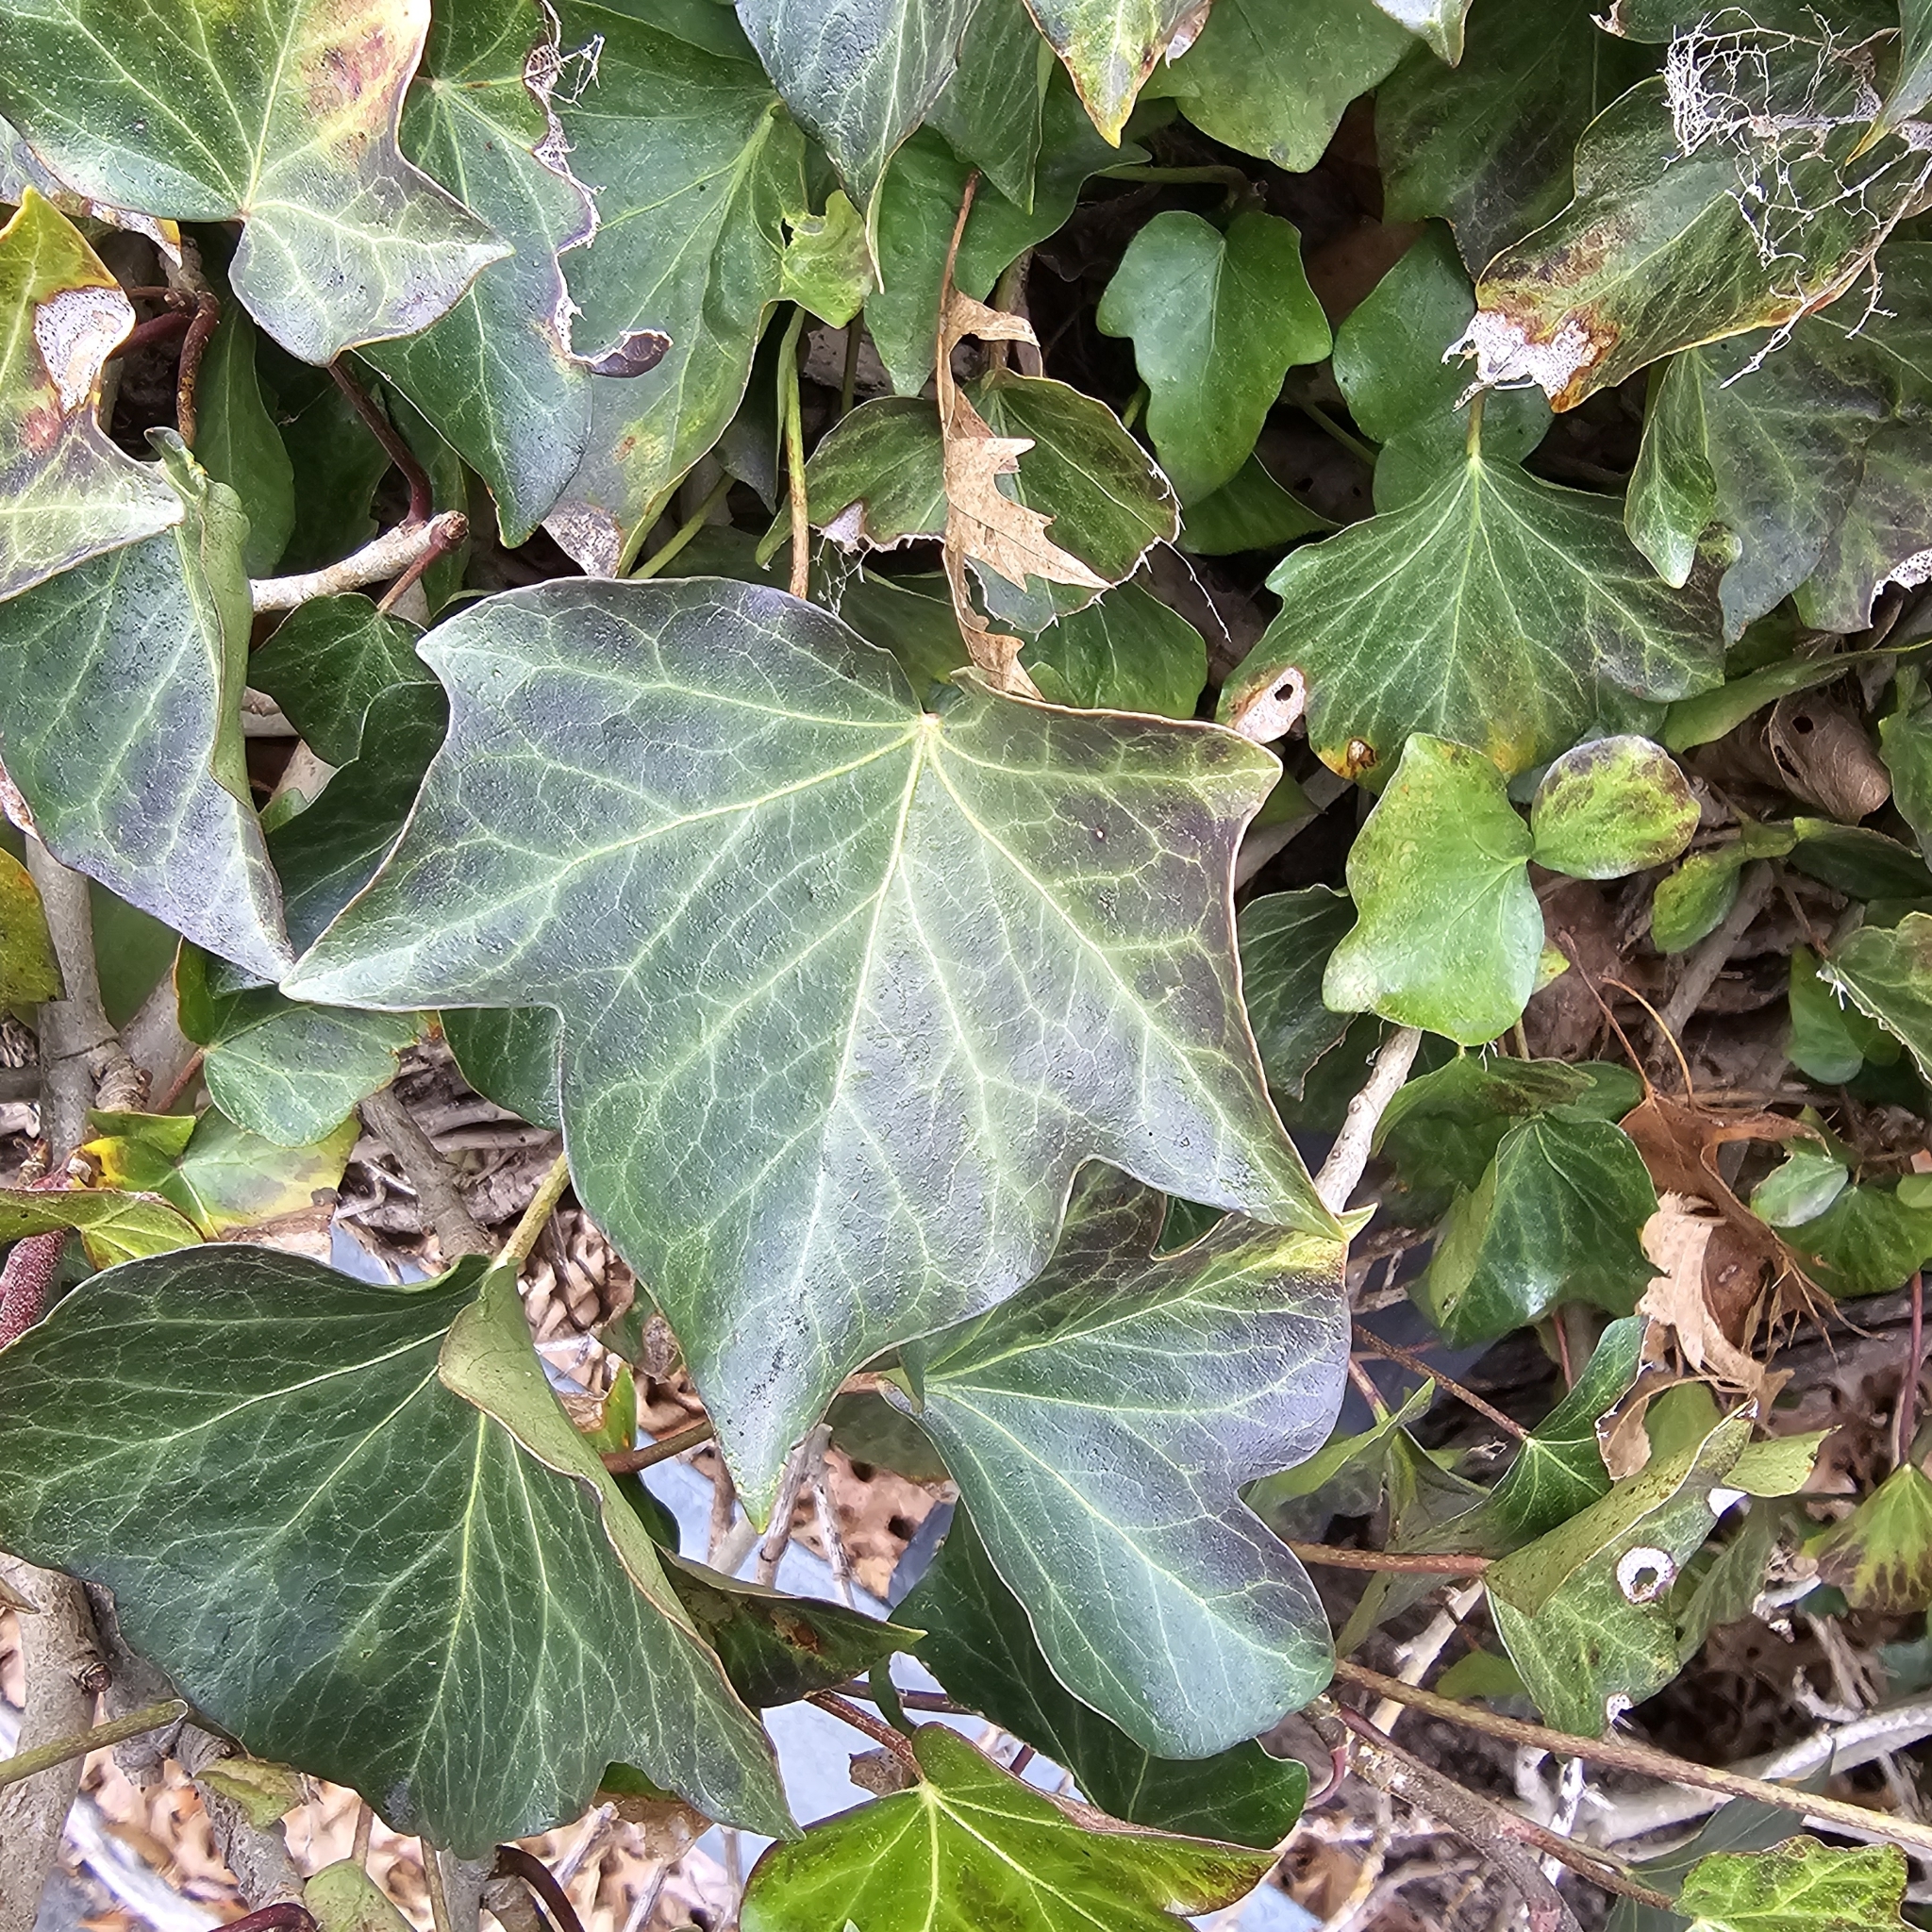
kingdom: Plantae
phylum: Tracheophyta
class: Magnoliopsida
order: Apiales
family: Araliaceae
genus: Hedera
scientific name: Hedera helix
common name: Ivy
